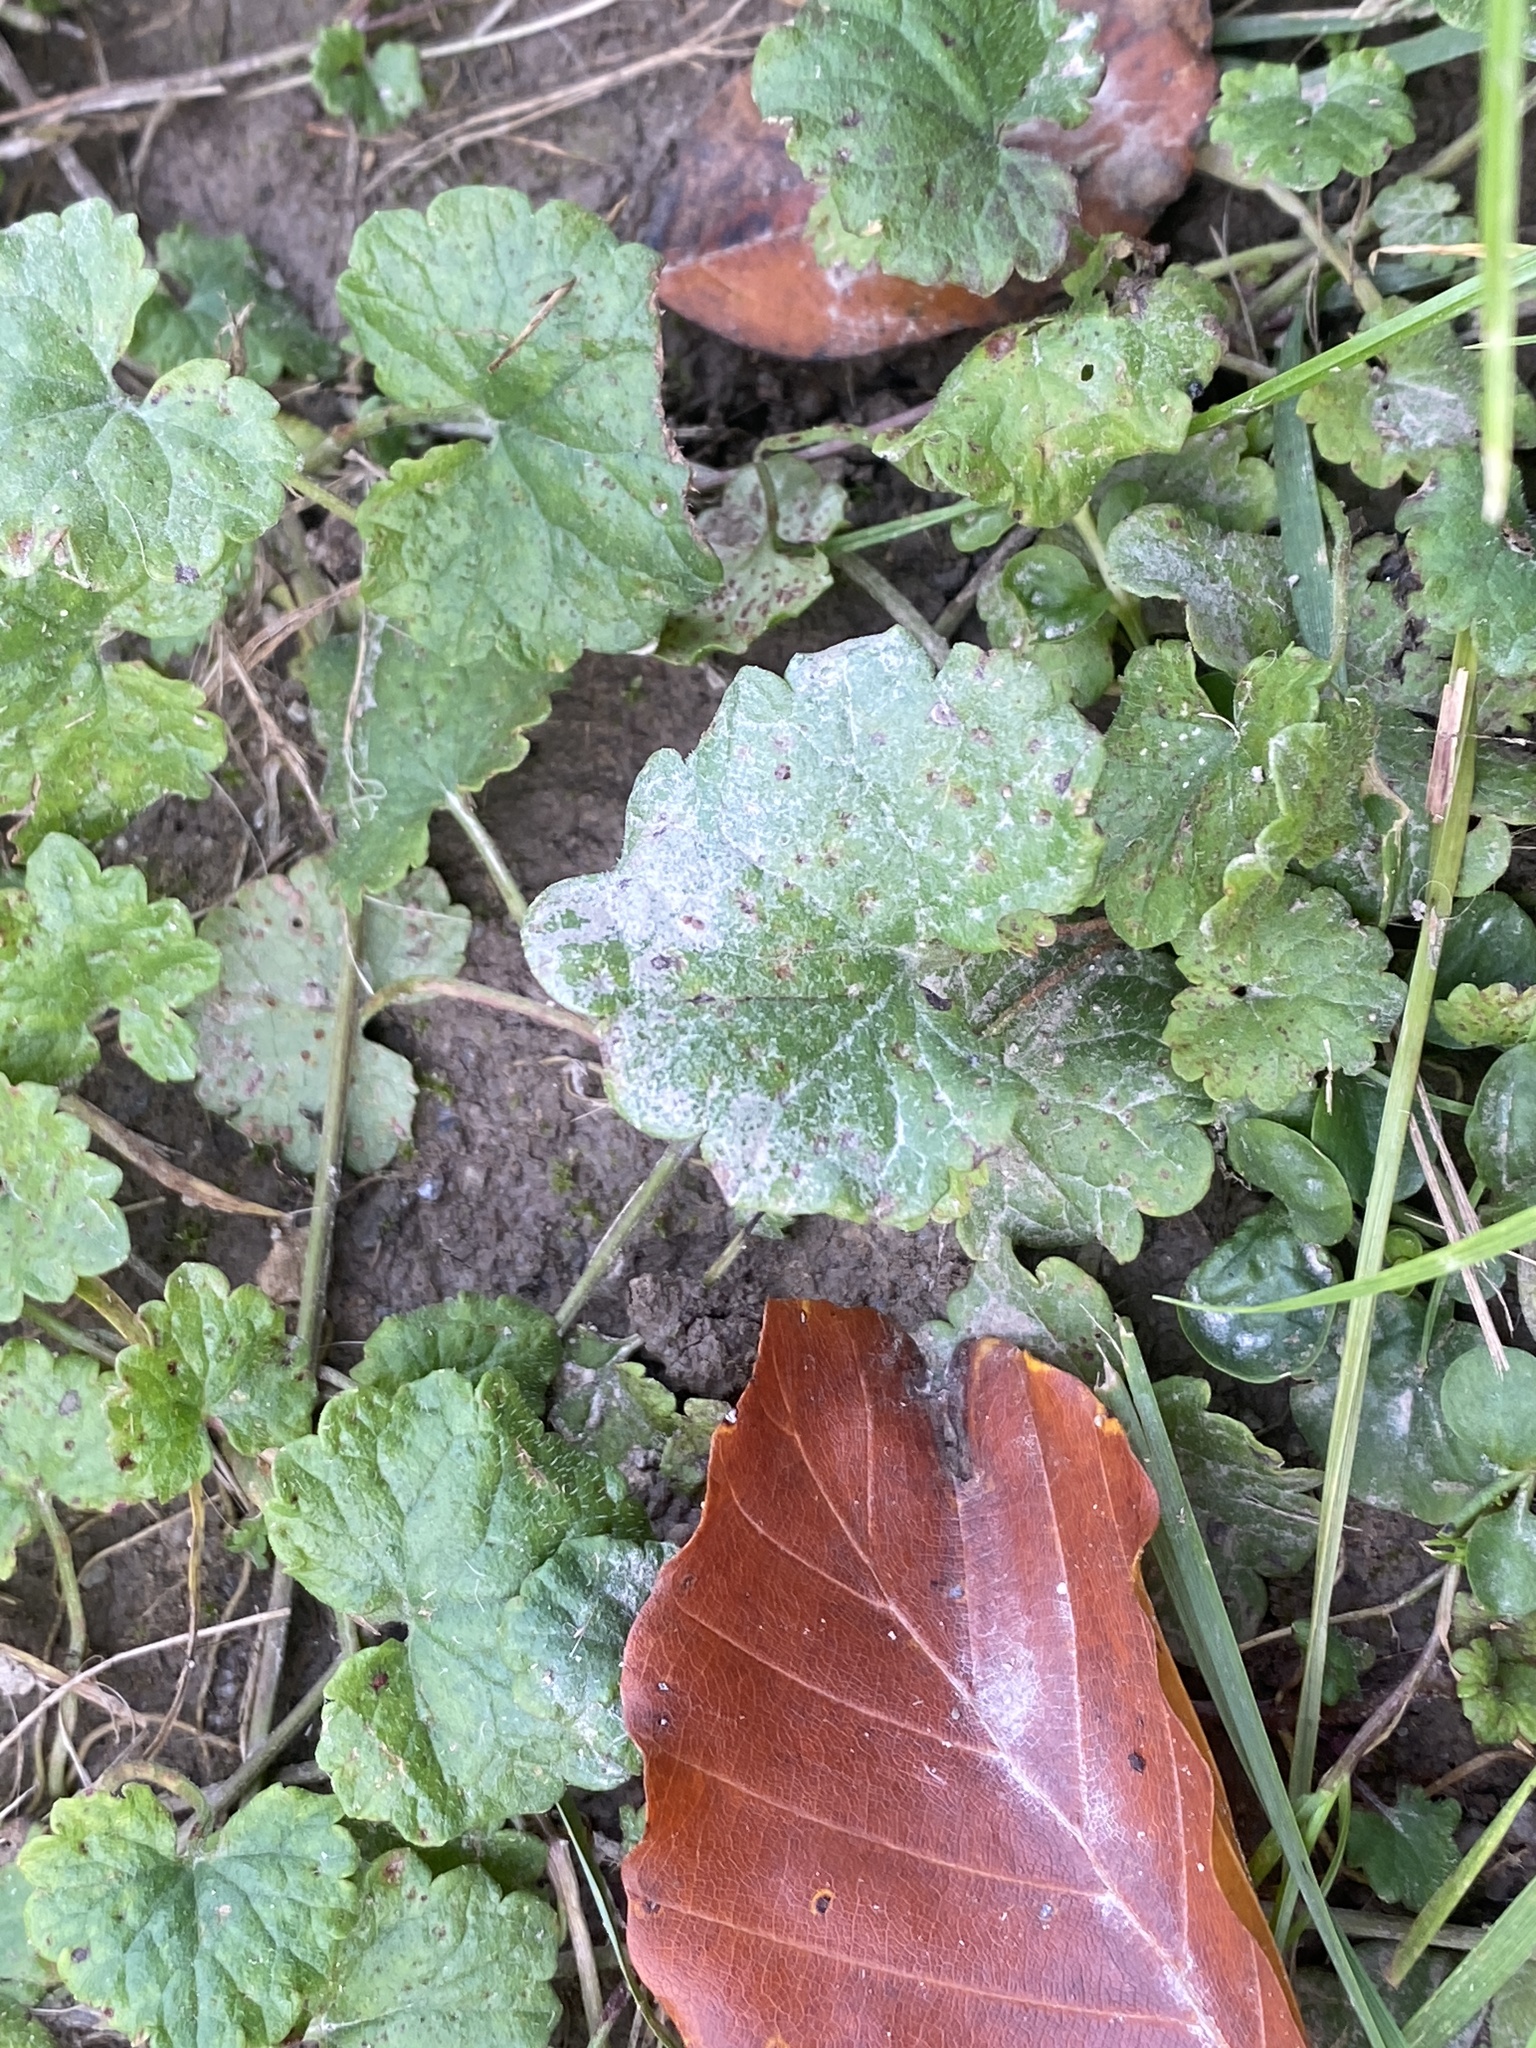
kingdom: Fungi
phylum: Basidiomycota
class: Pucciniomycetes
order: Pucciniales
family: Pucciniaceae
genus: Puccinia
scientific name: Puccinia glechomatis
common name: Ground ivy rust
